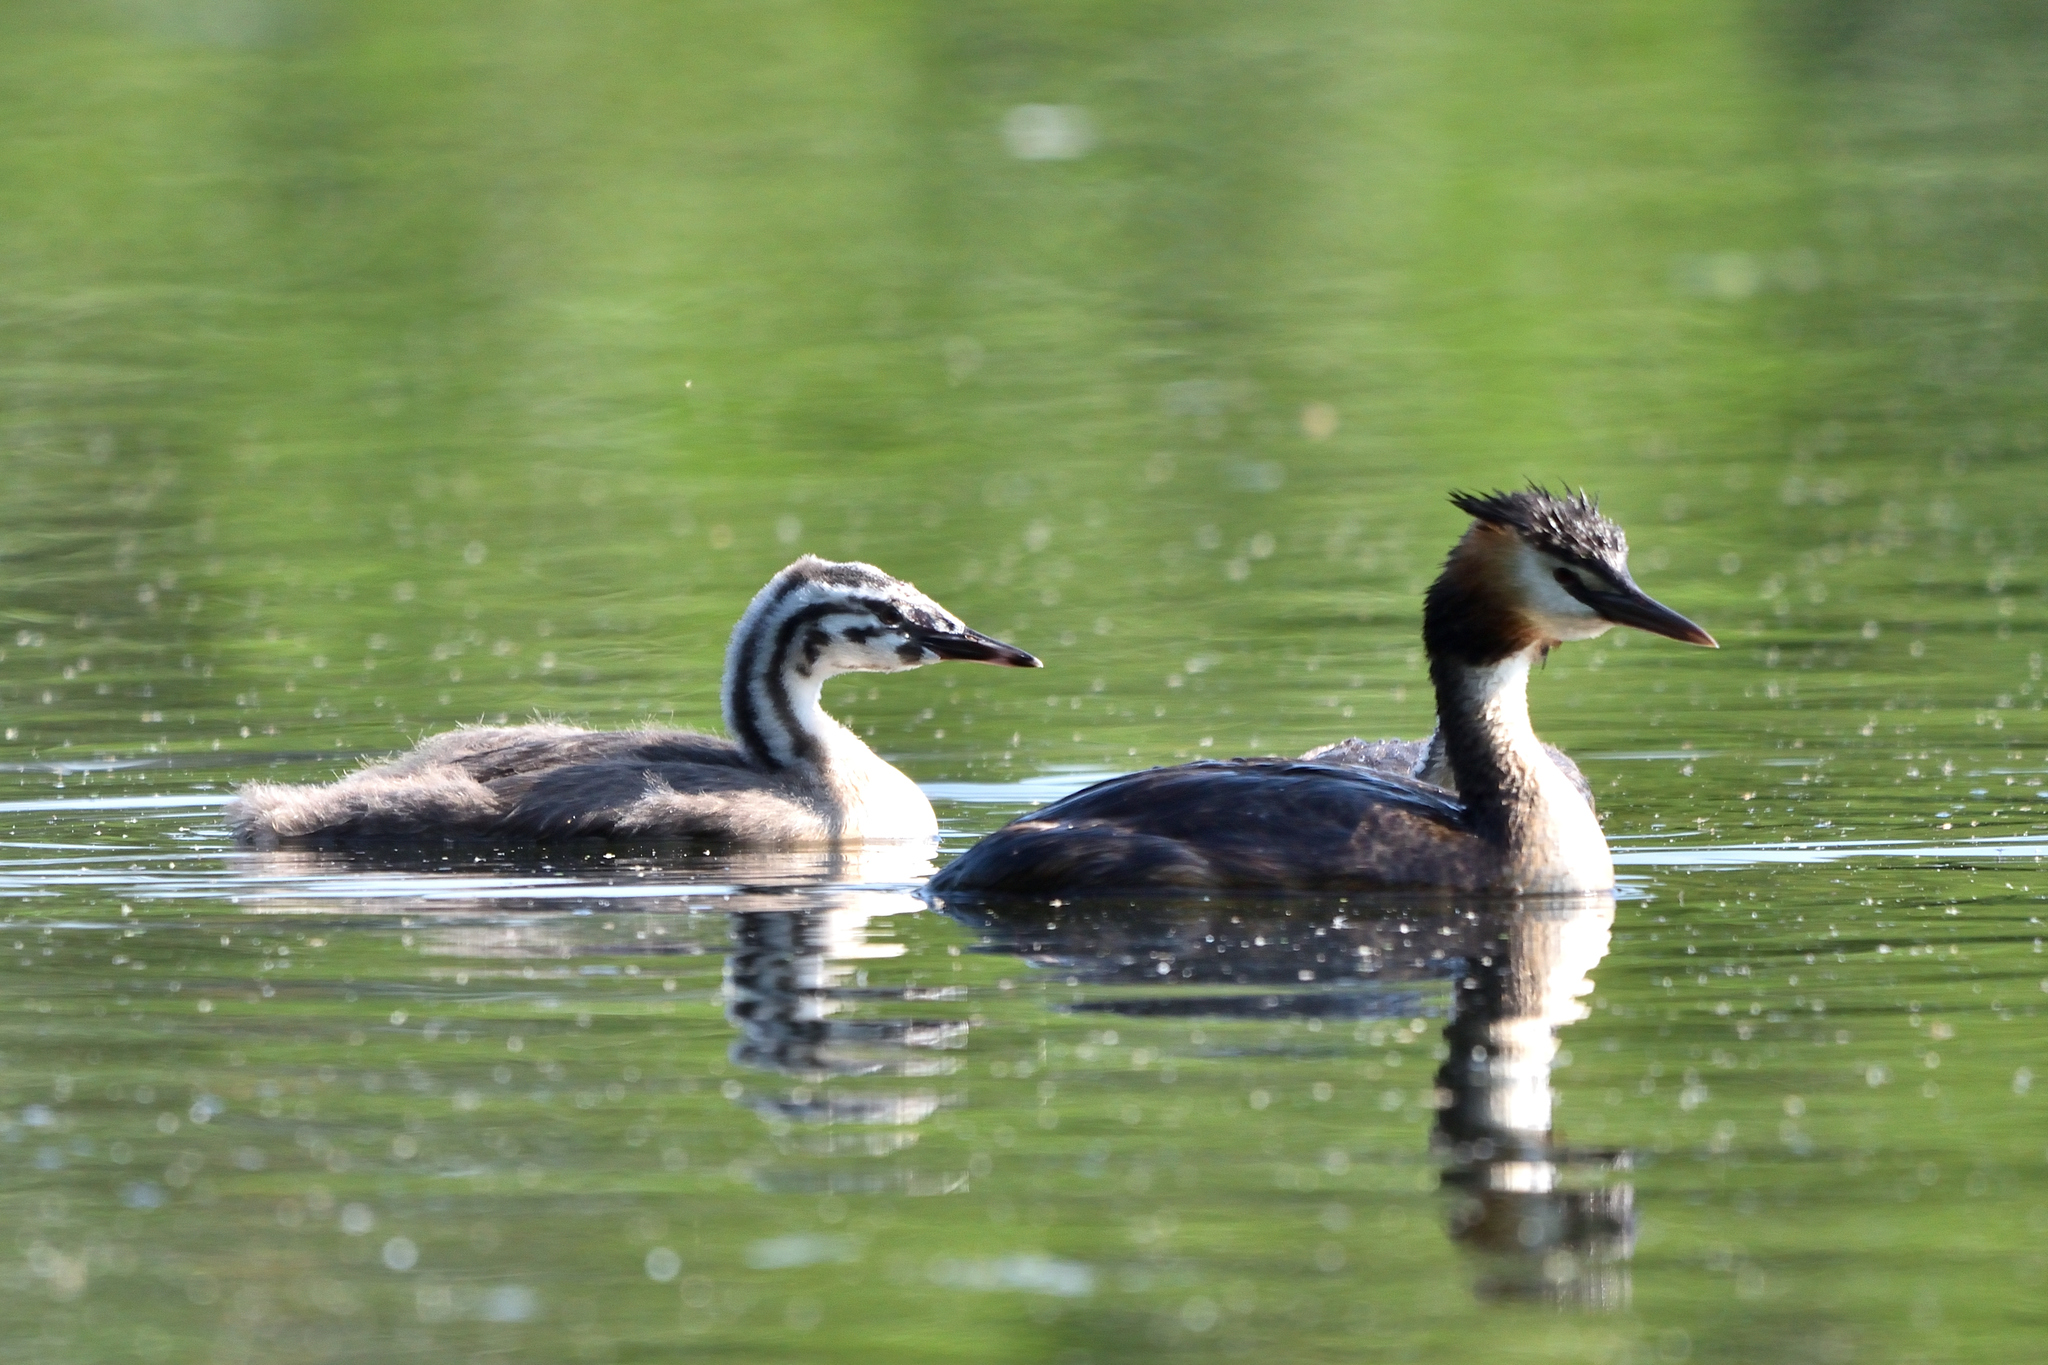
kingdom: Animalia
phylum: Chordata
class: Aves
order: Podicipediformes
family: Podicipedidae
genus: Podiceps
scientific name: Podiceps cristatus
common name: Great crested grebe
